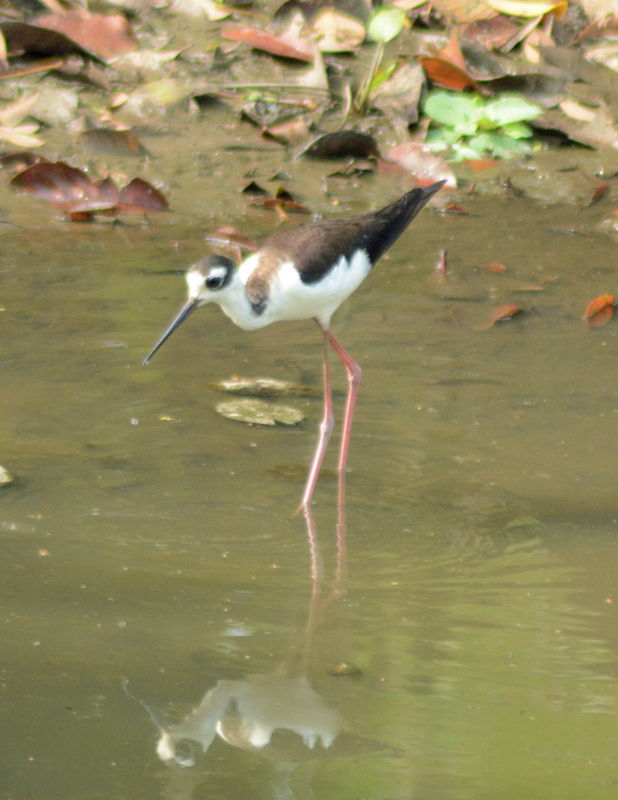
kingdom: Animalia
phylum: Chordata
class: Aves
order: Charadriiformes
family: Recurvirostridae
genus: Himantopus
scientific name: Himantopus mexicanus
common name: Black-necked stilt
